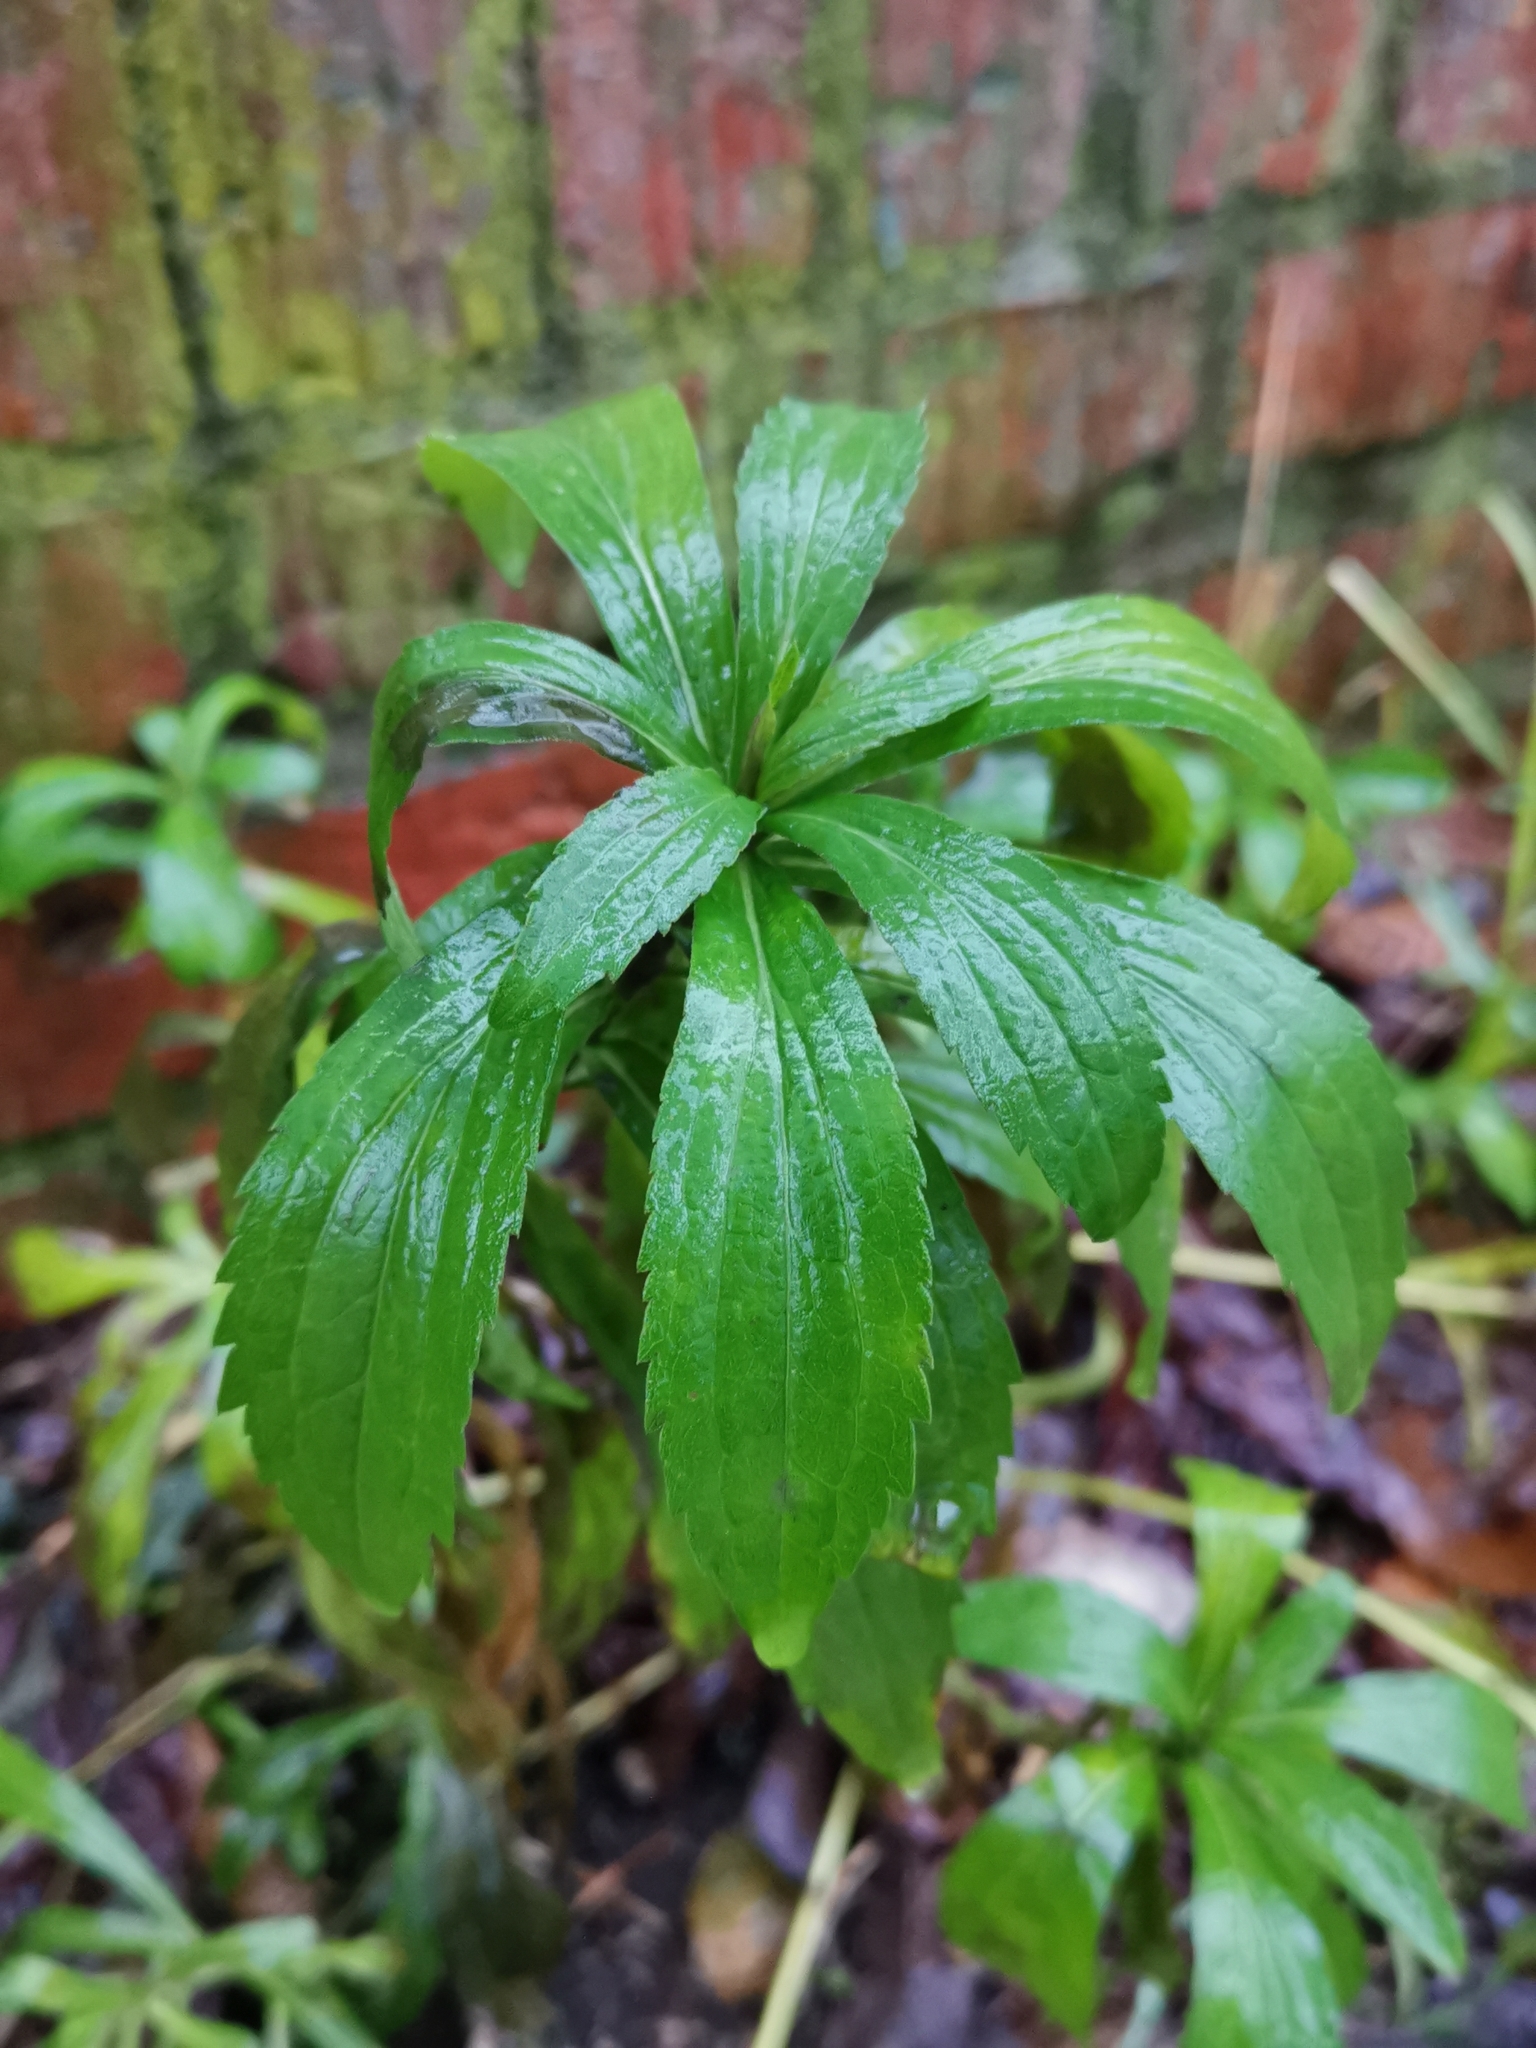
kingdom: Plantae
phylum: Tracheophyta
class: Magnoliopsida
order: Asterales
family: Asteraceae
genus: Solidago
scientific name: Solidago canadensis
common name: Canada goldenrod
